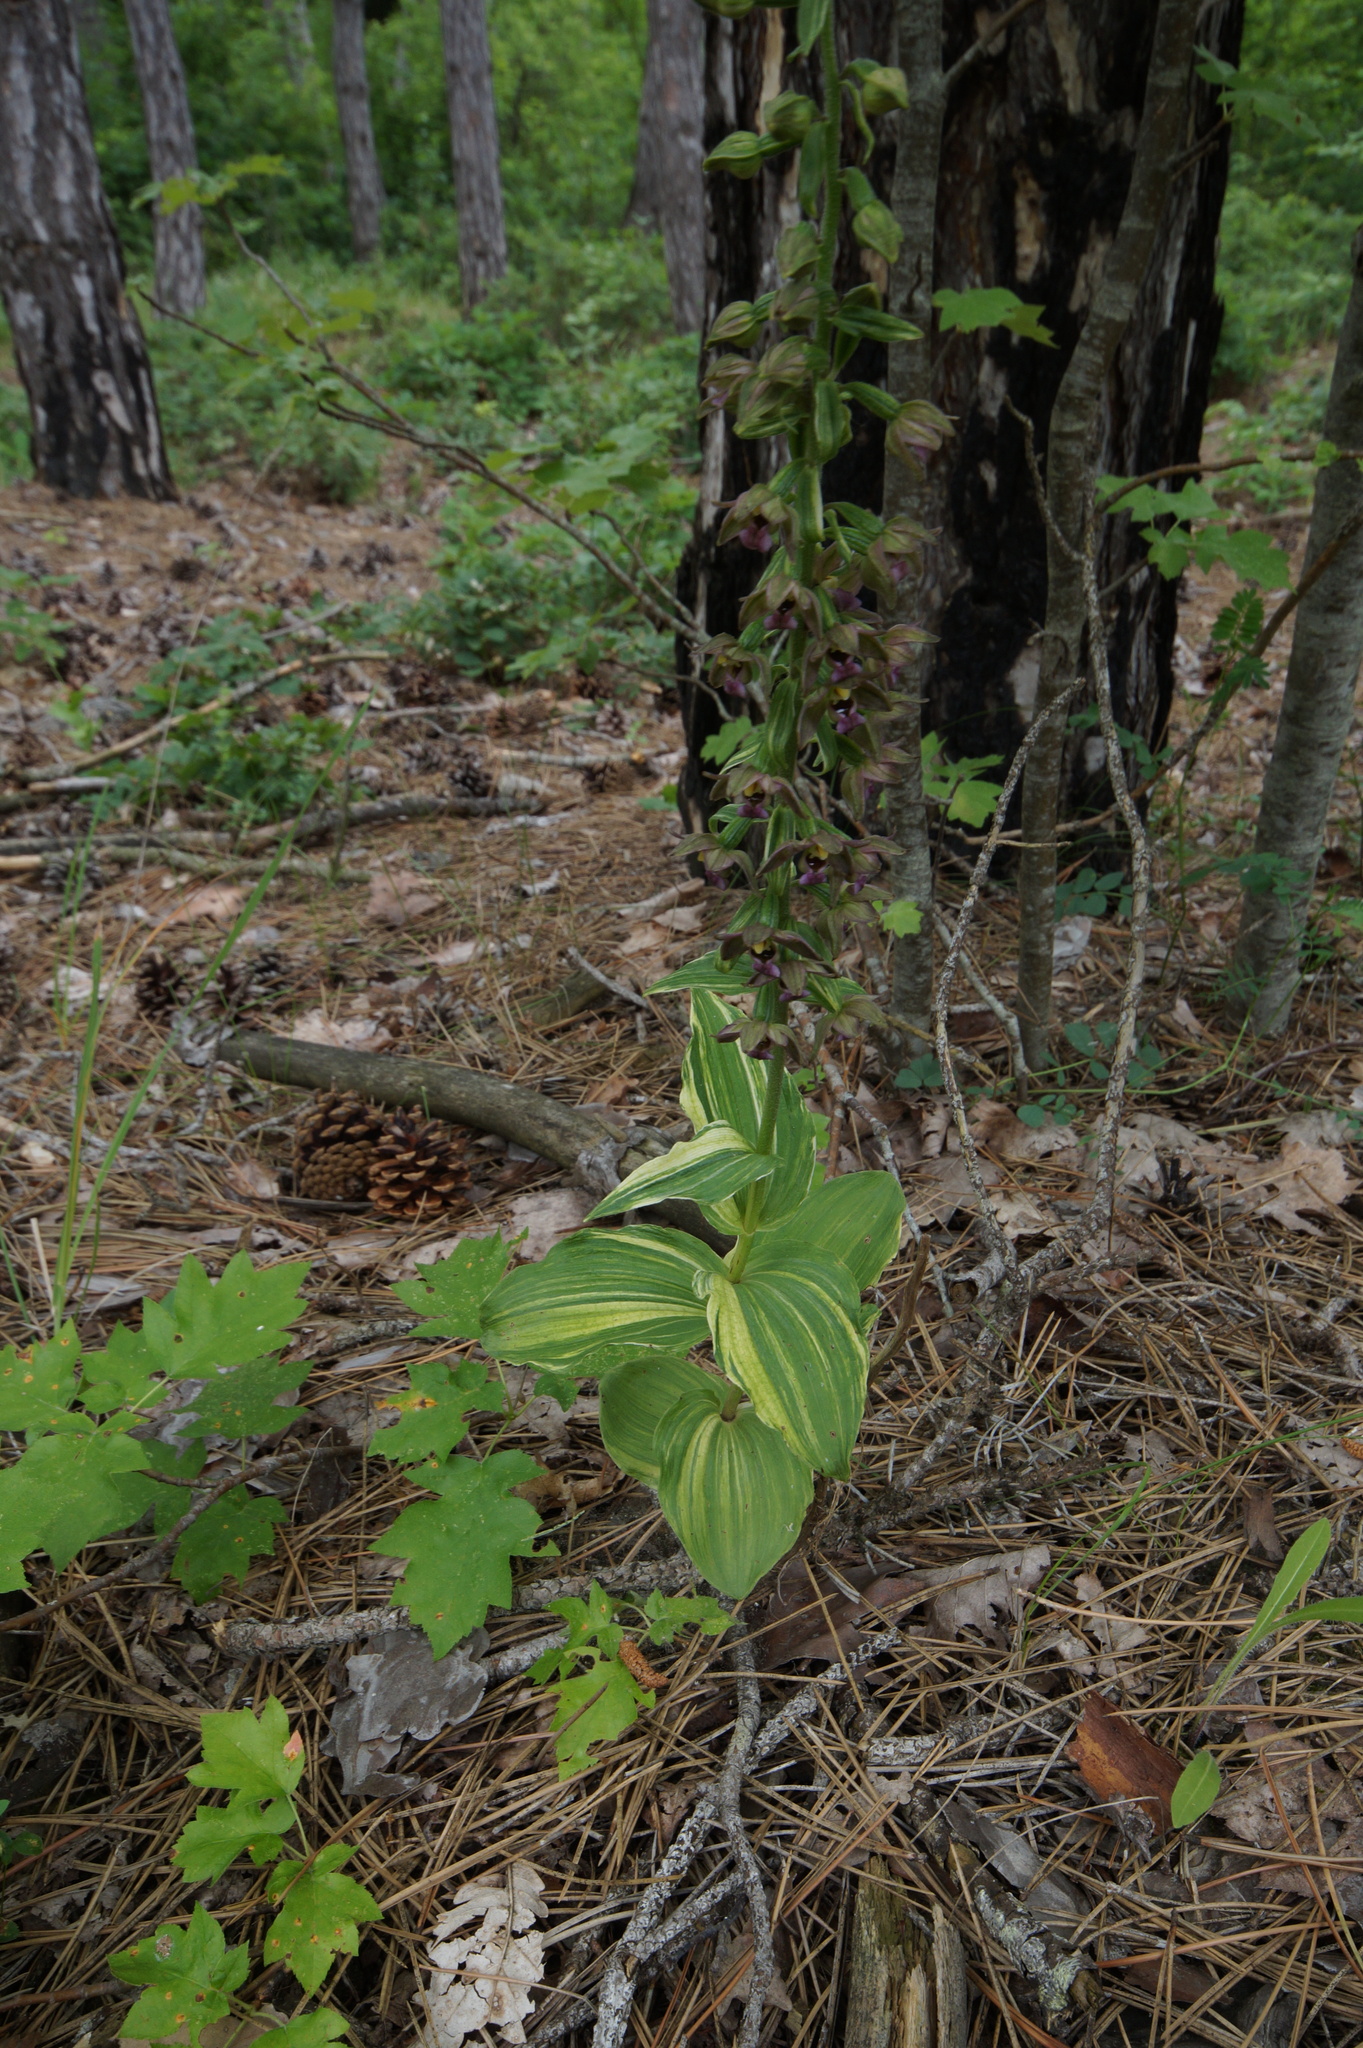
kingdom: Plantae
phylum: Tracheophyta
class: Liliopsida
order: Asparagales
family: Orchidaceae
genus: Epipactis
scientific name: Epipactis helleborine
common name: Broad-leaved helleborine
